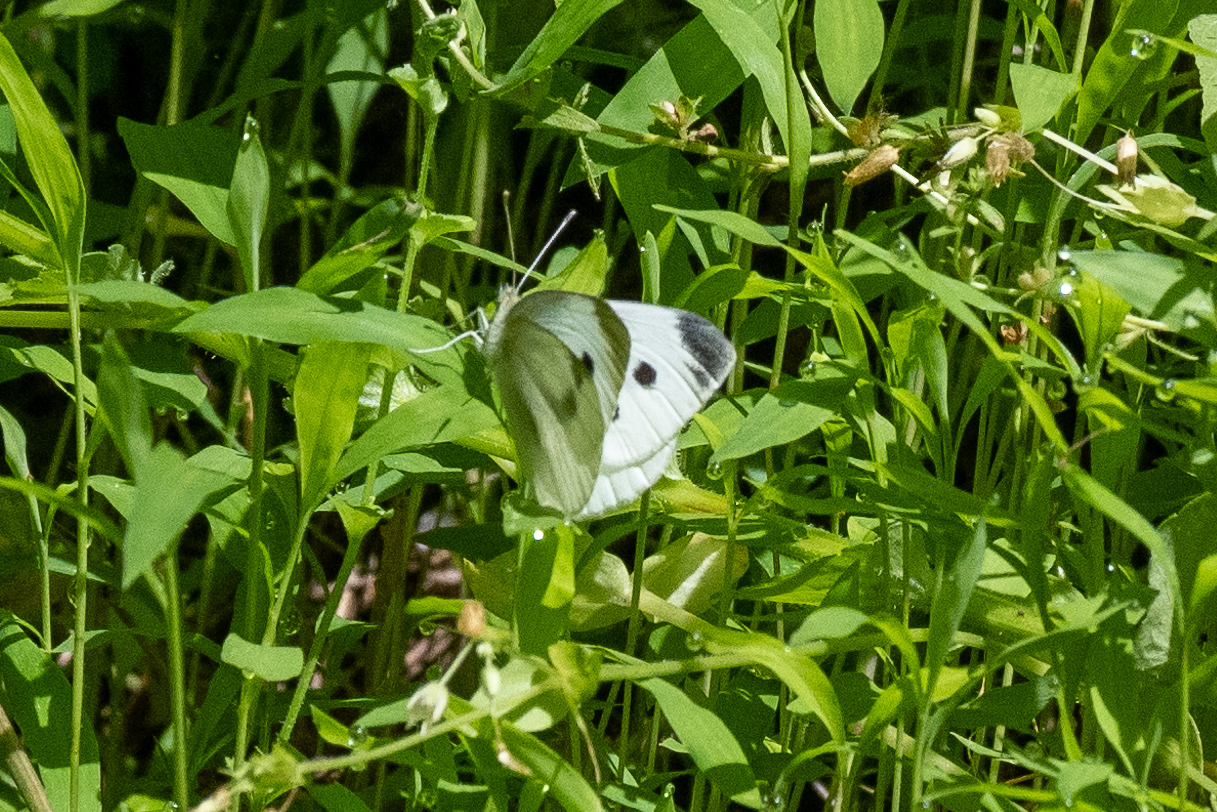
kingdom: Animalia
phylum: Arthropoda
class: Insecta
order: Lepidoptera
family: Pieridae
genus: Pieris
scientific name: Pieris rapae
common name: Small white
